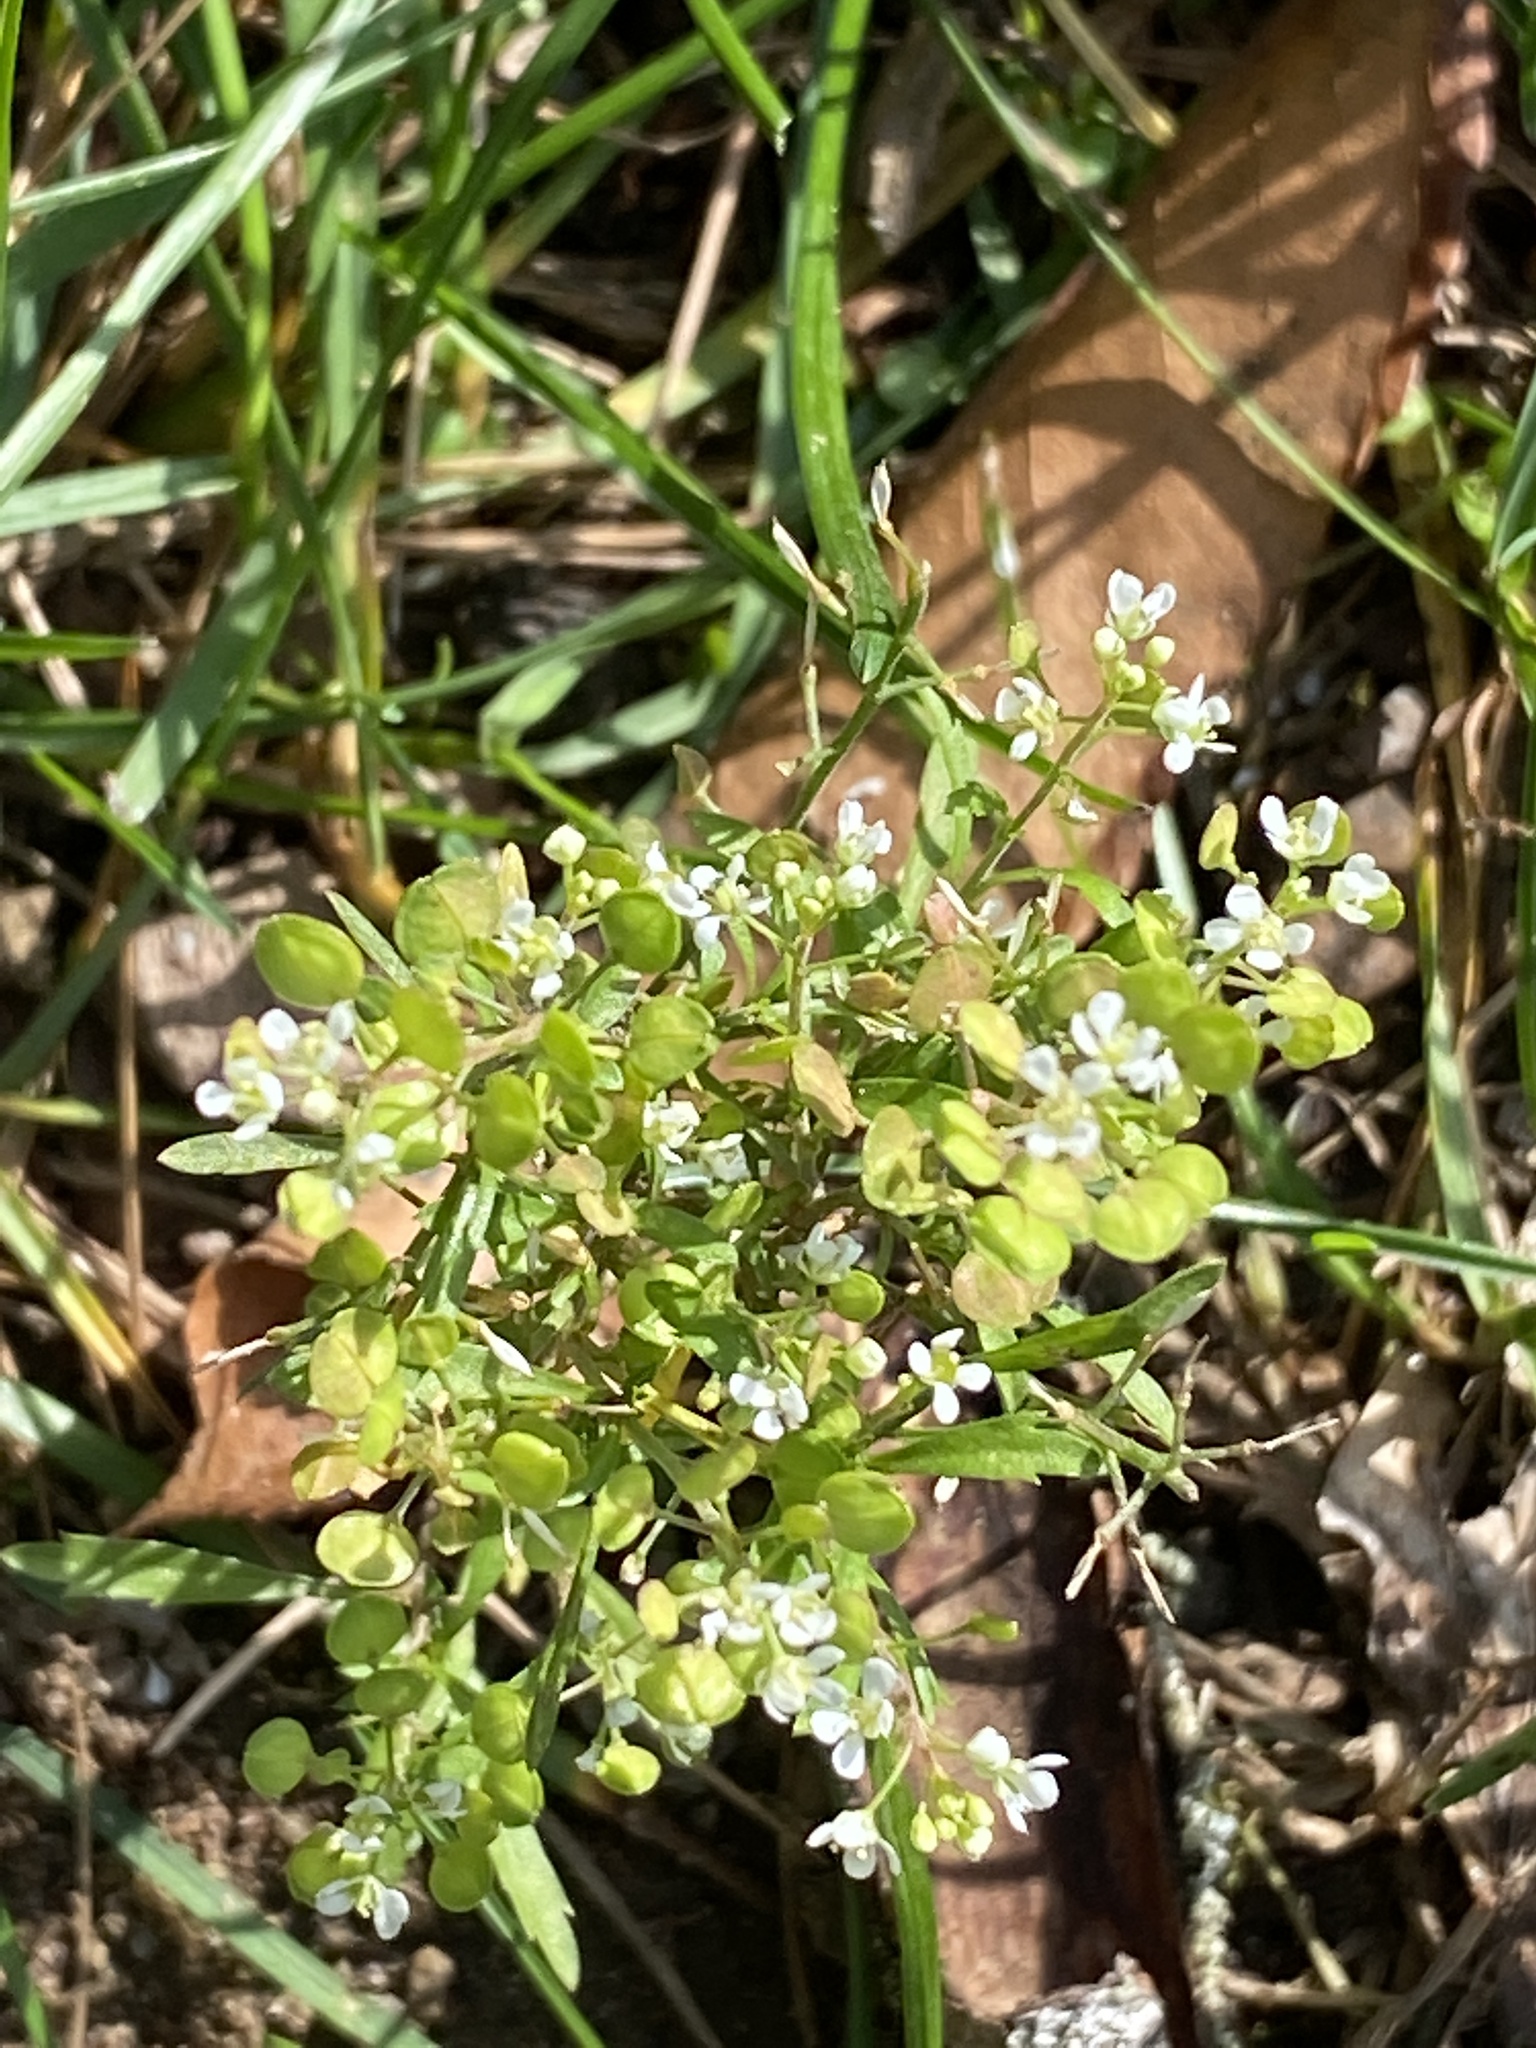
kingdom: Plantae
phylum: Tracheophyta
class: Magnoliopsida
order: Brassicales
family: Brassicaceae
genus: Lepidium
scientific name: Lepidium virginicum
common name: Least pepperwort
